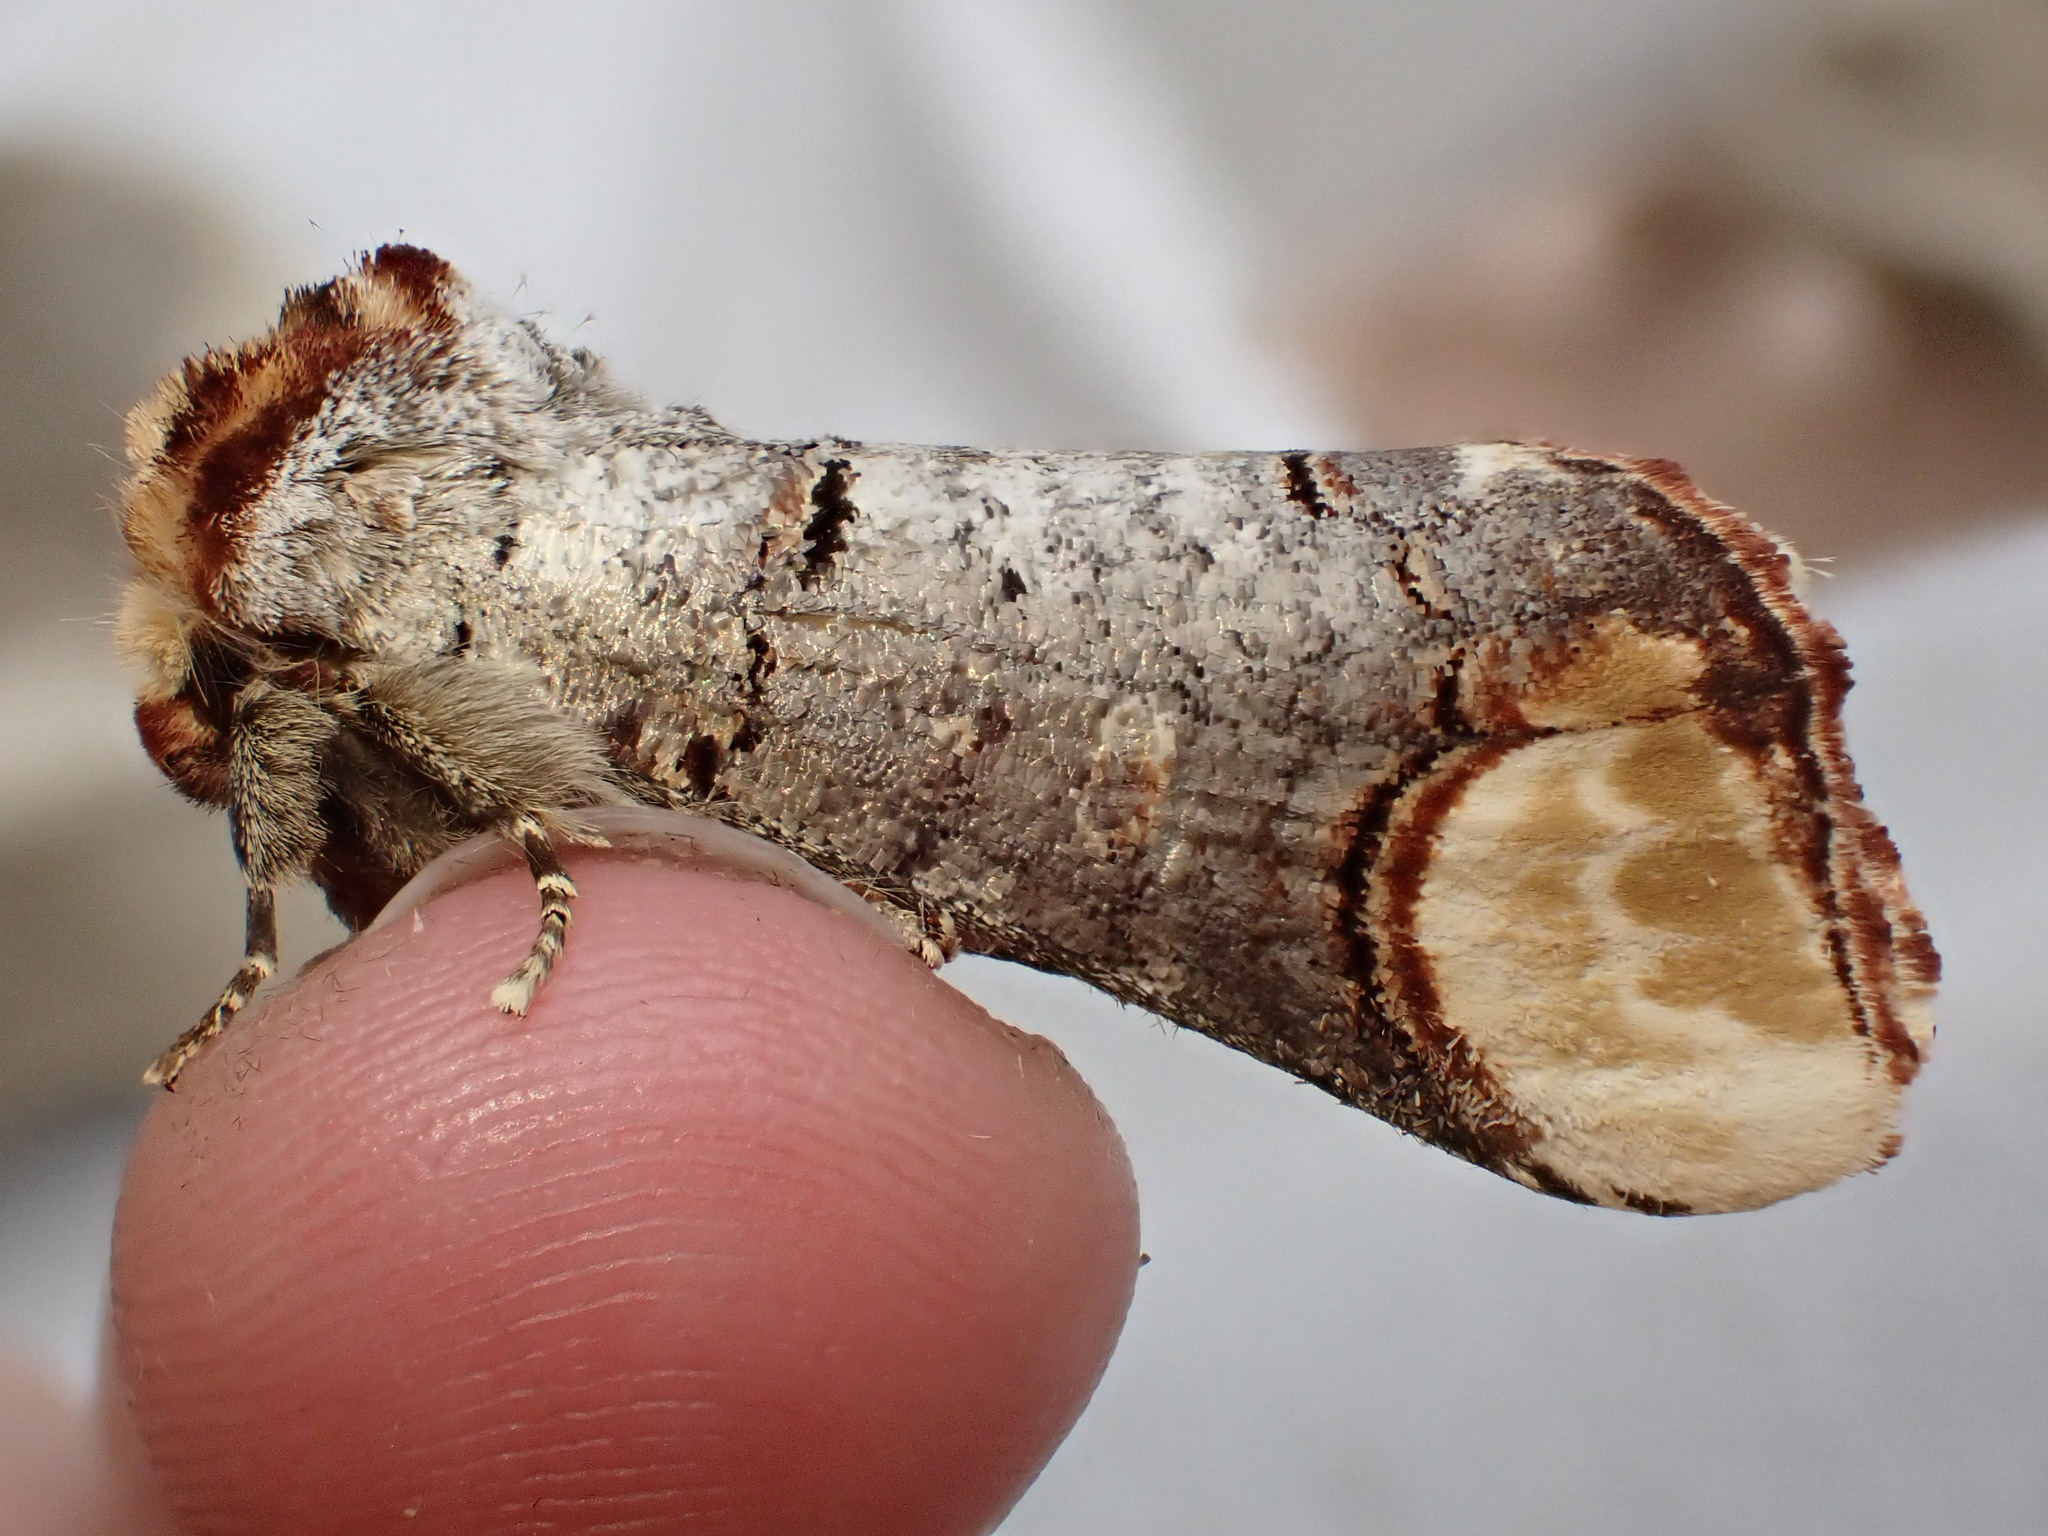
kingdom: Animalia
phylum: Arthropoda
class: Insecta
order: Lepidoptera
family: Notodontidae
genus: Phalera
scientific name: Phalera bucephala
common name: Buff-tip
